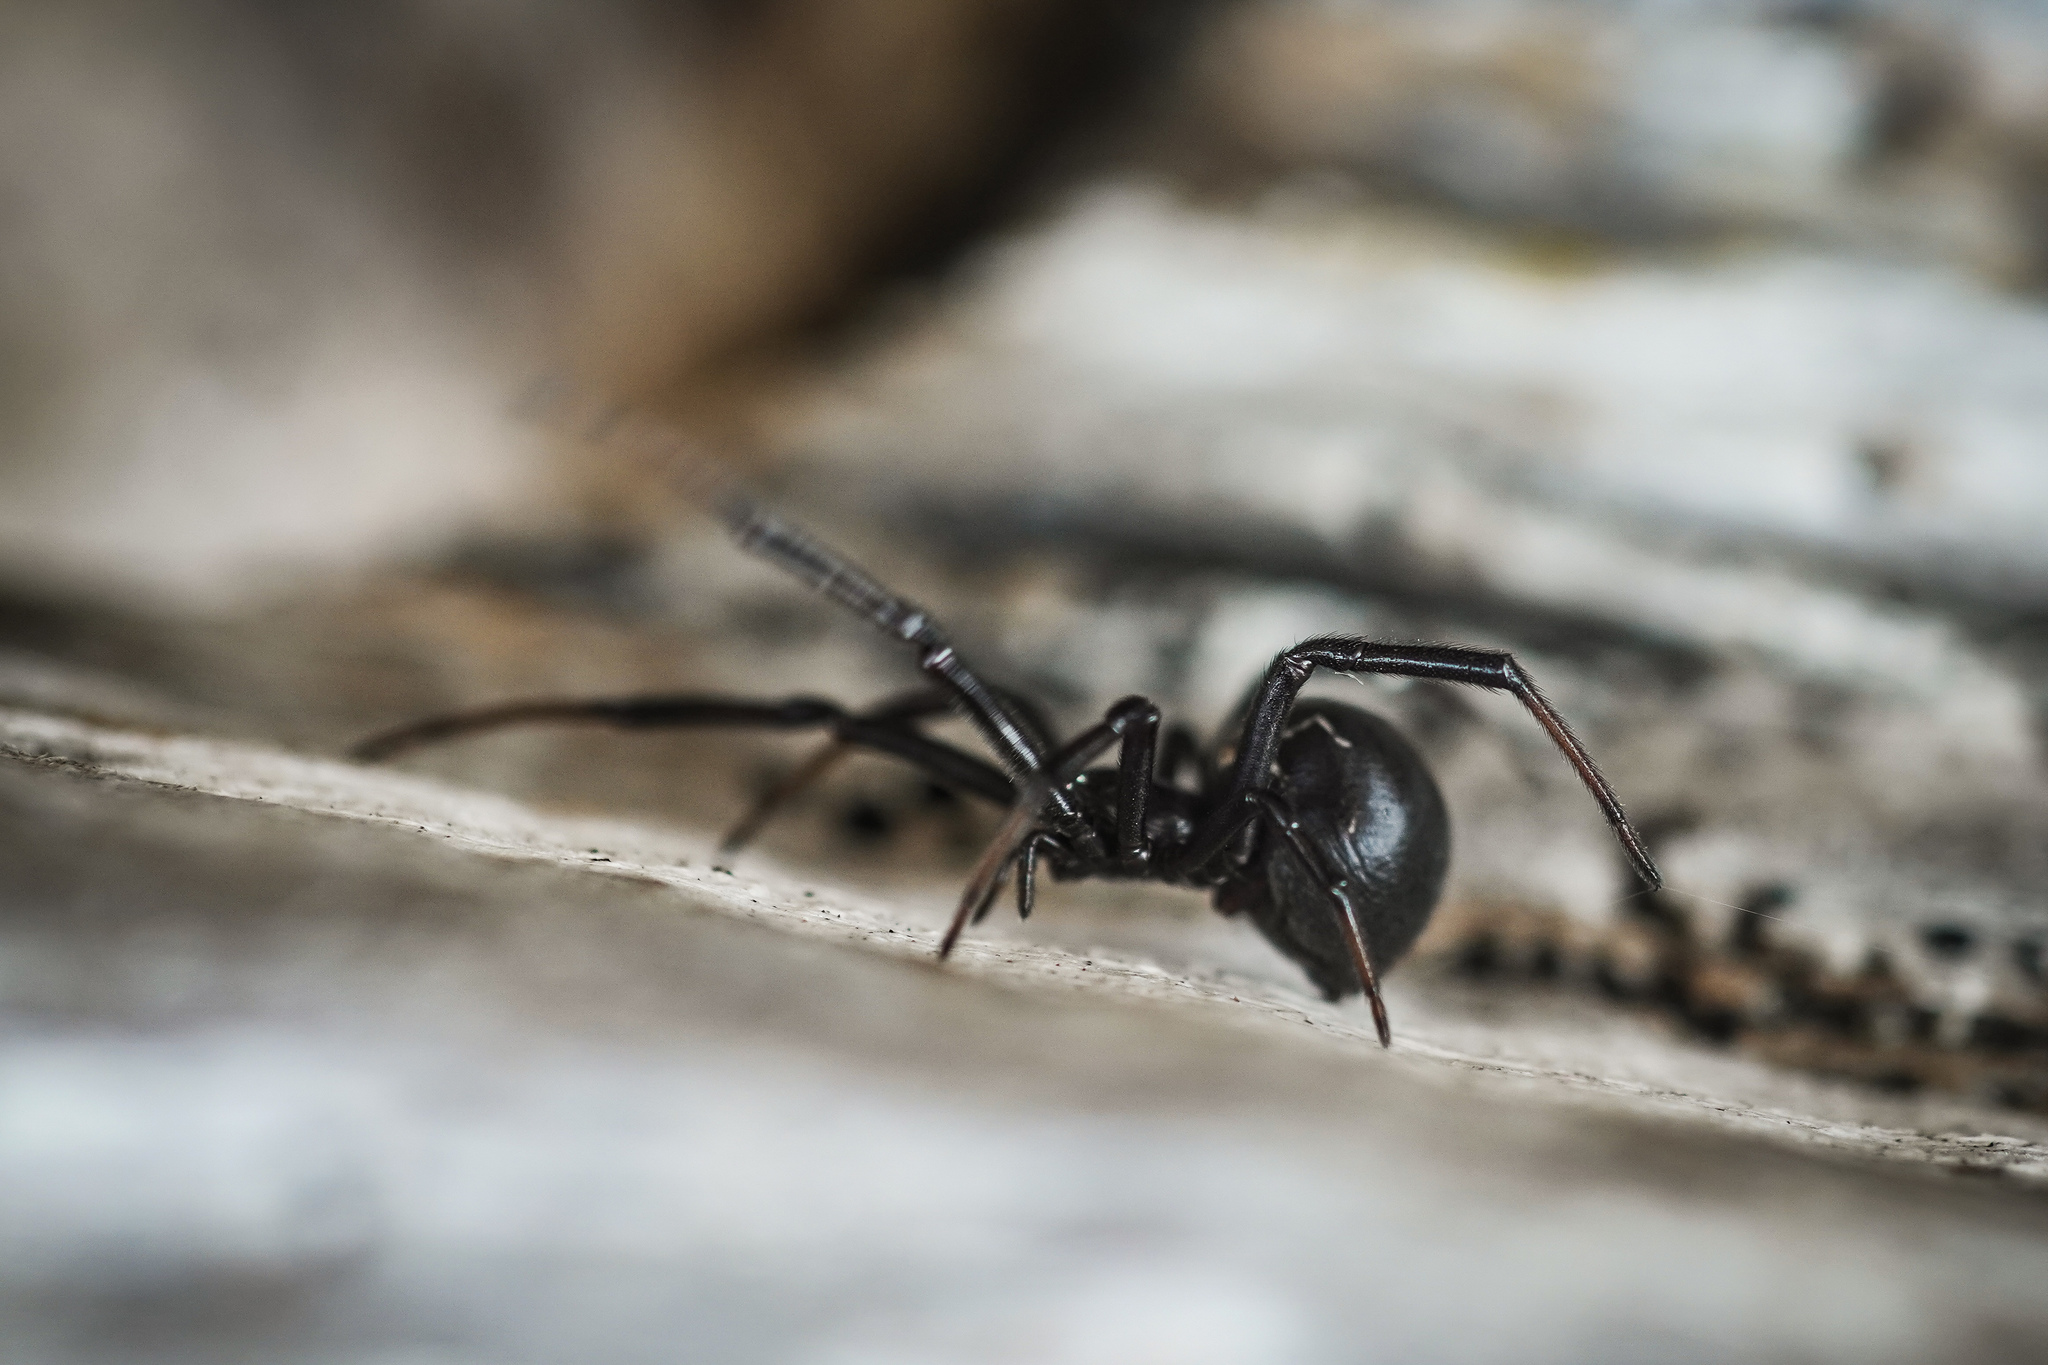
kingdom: Animalia
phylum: Arthropoda
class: Arachnida
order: Araneae
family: Theridiidae
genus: Latrodectus
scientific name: Latrodectus katipo
